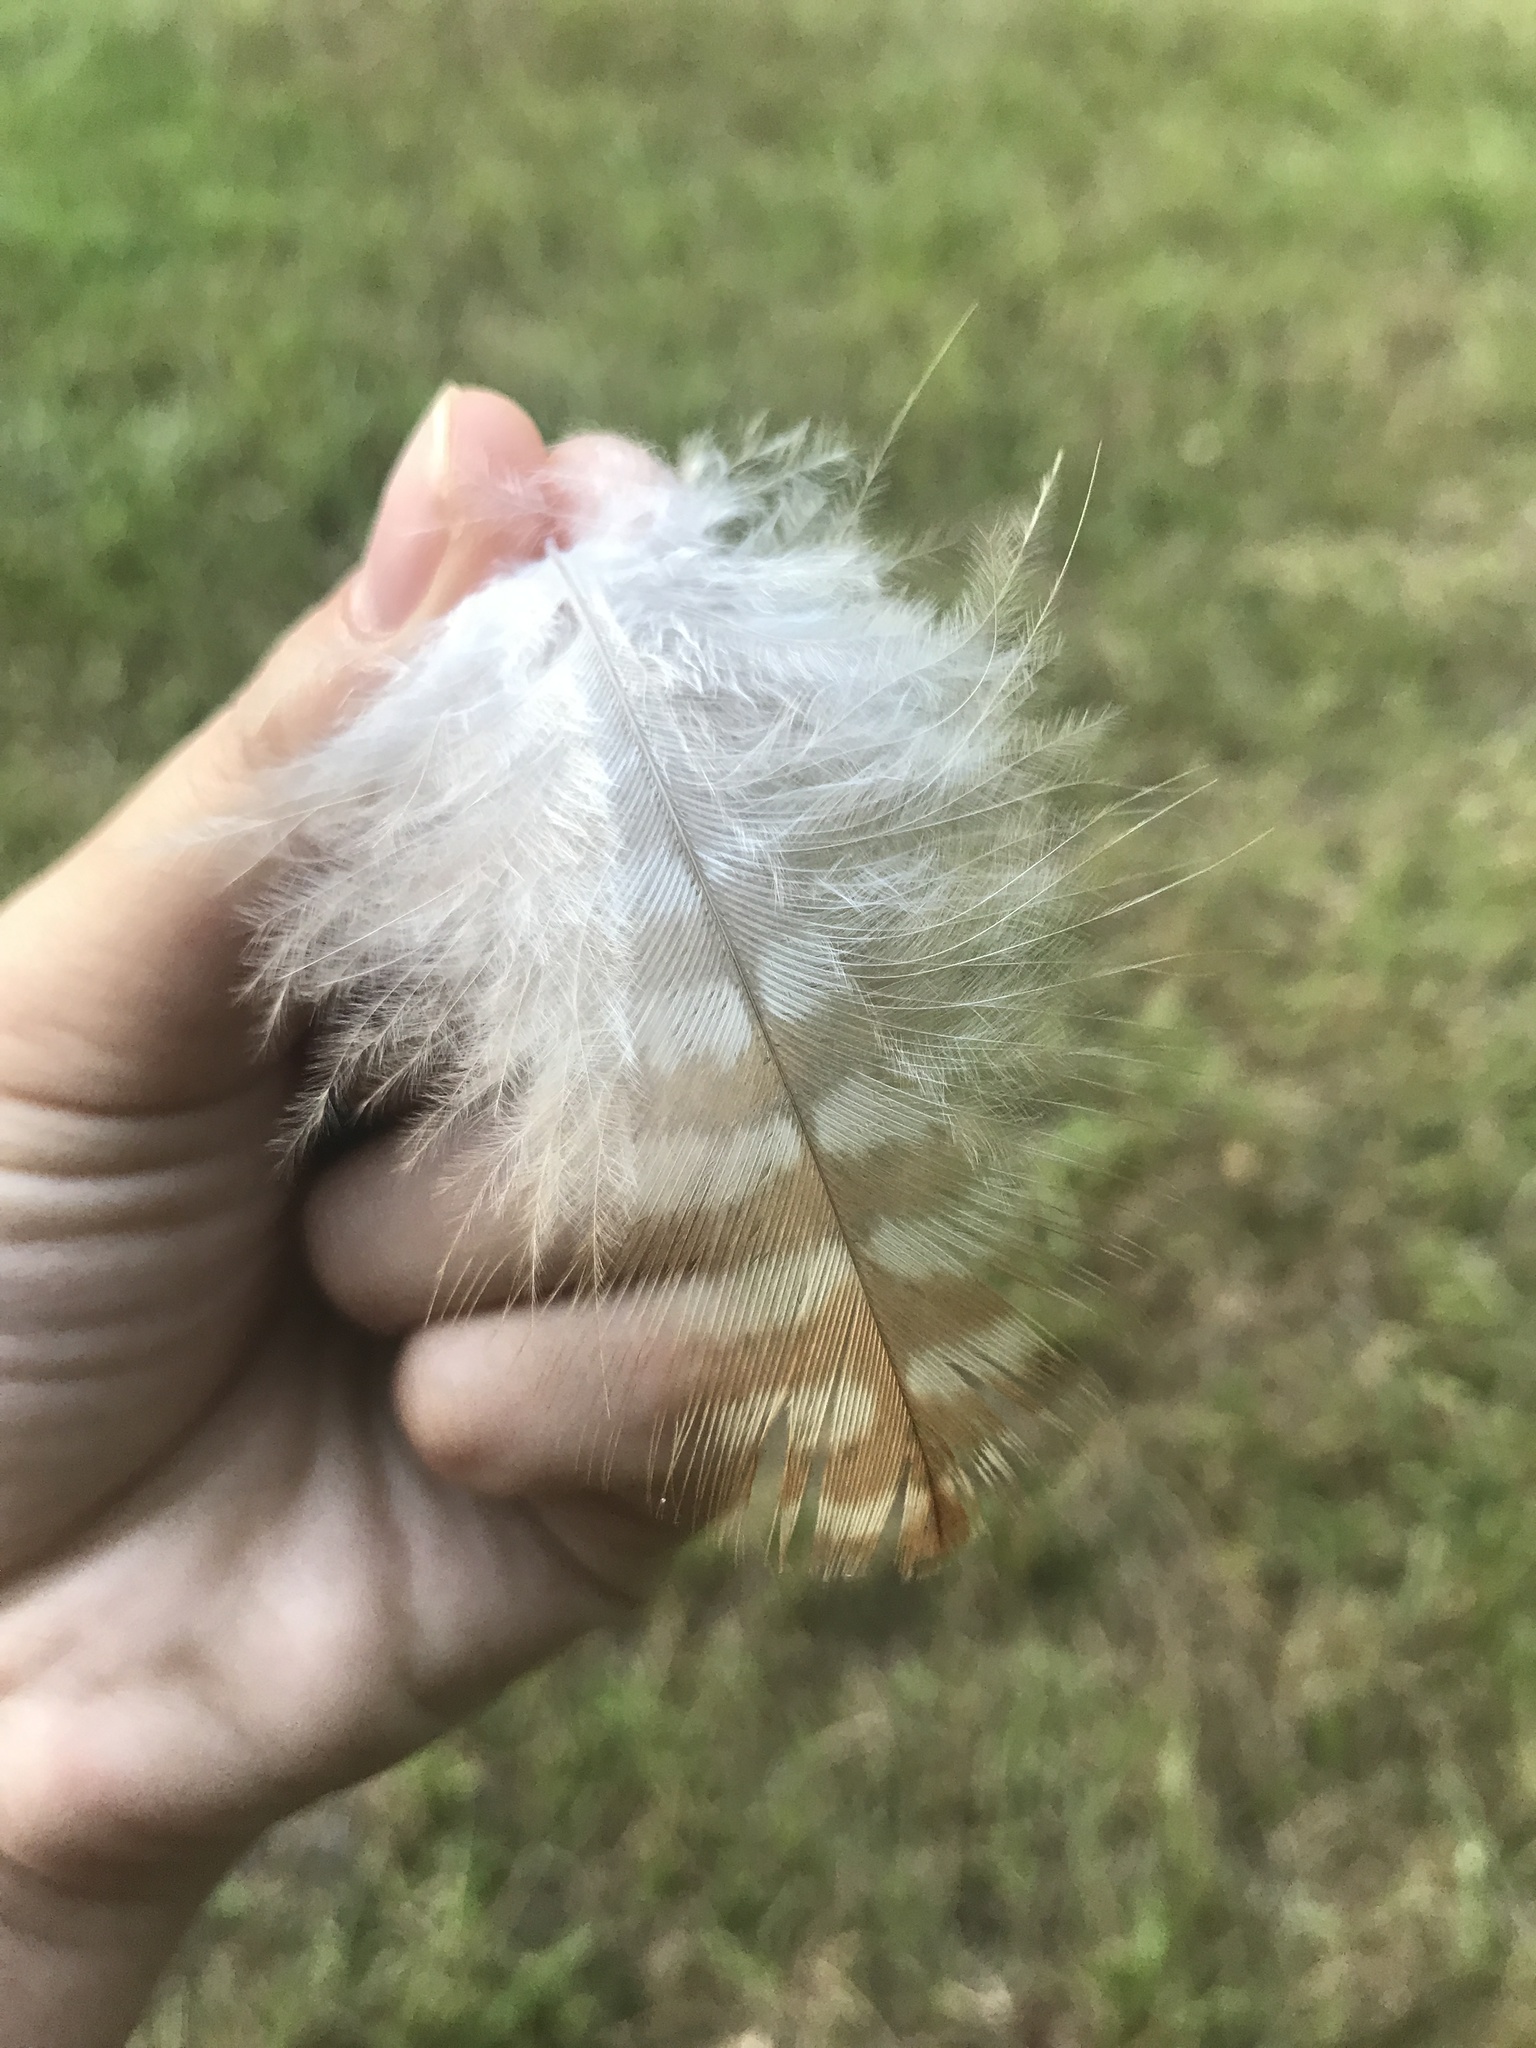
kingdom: Animalia
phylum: Chordata
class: Aves
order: Accipitriformes
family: Accipitridae
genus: Buteo
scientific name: Buteo lineatus
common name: Red-shouldered hawk
